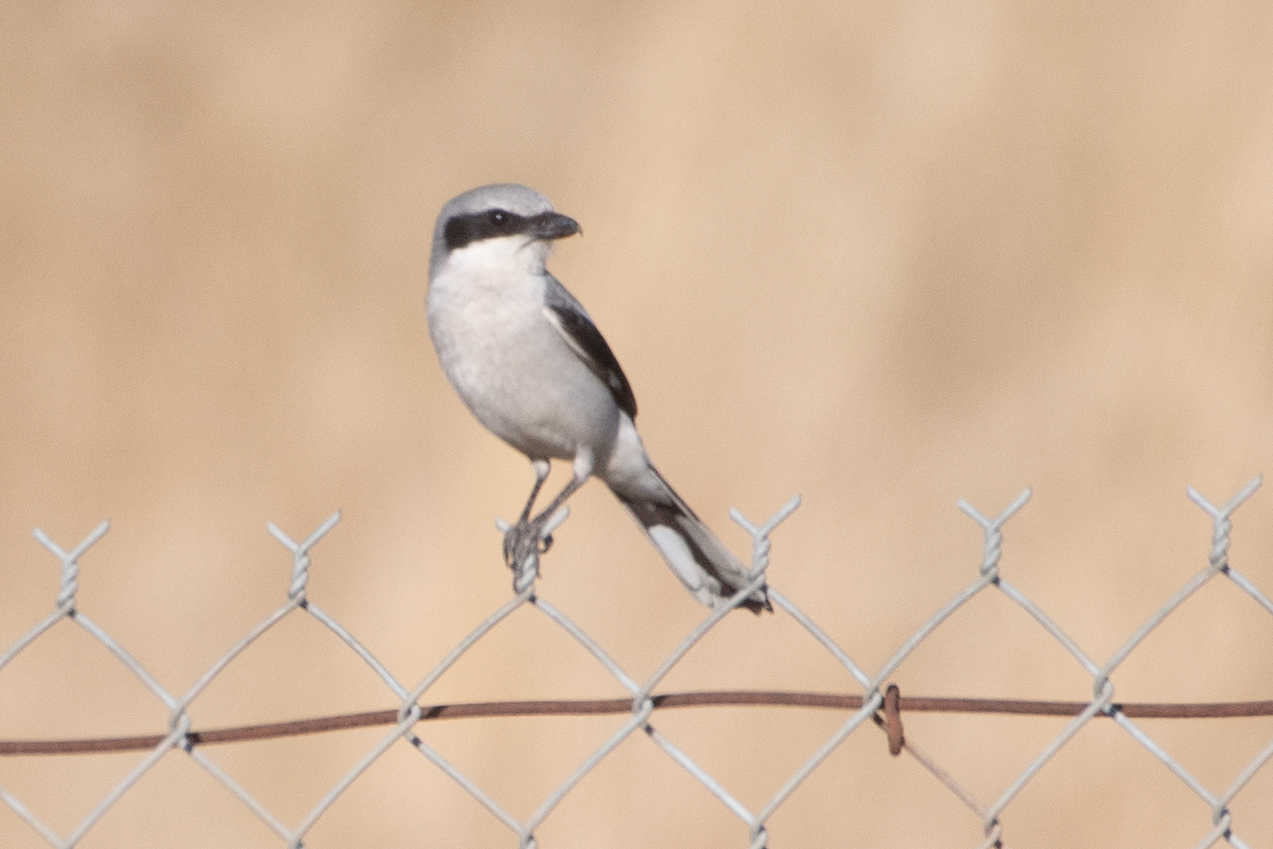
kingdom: Animalia
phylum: Chordata
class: Aves
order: Passeriformes
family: Laniidae
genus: Lanius
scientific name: Lanius ludovicianus
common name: Loggerhead shrike
